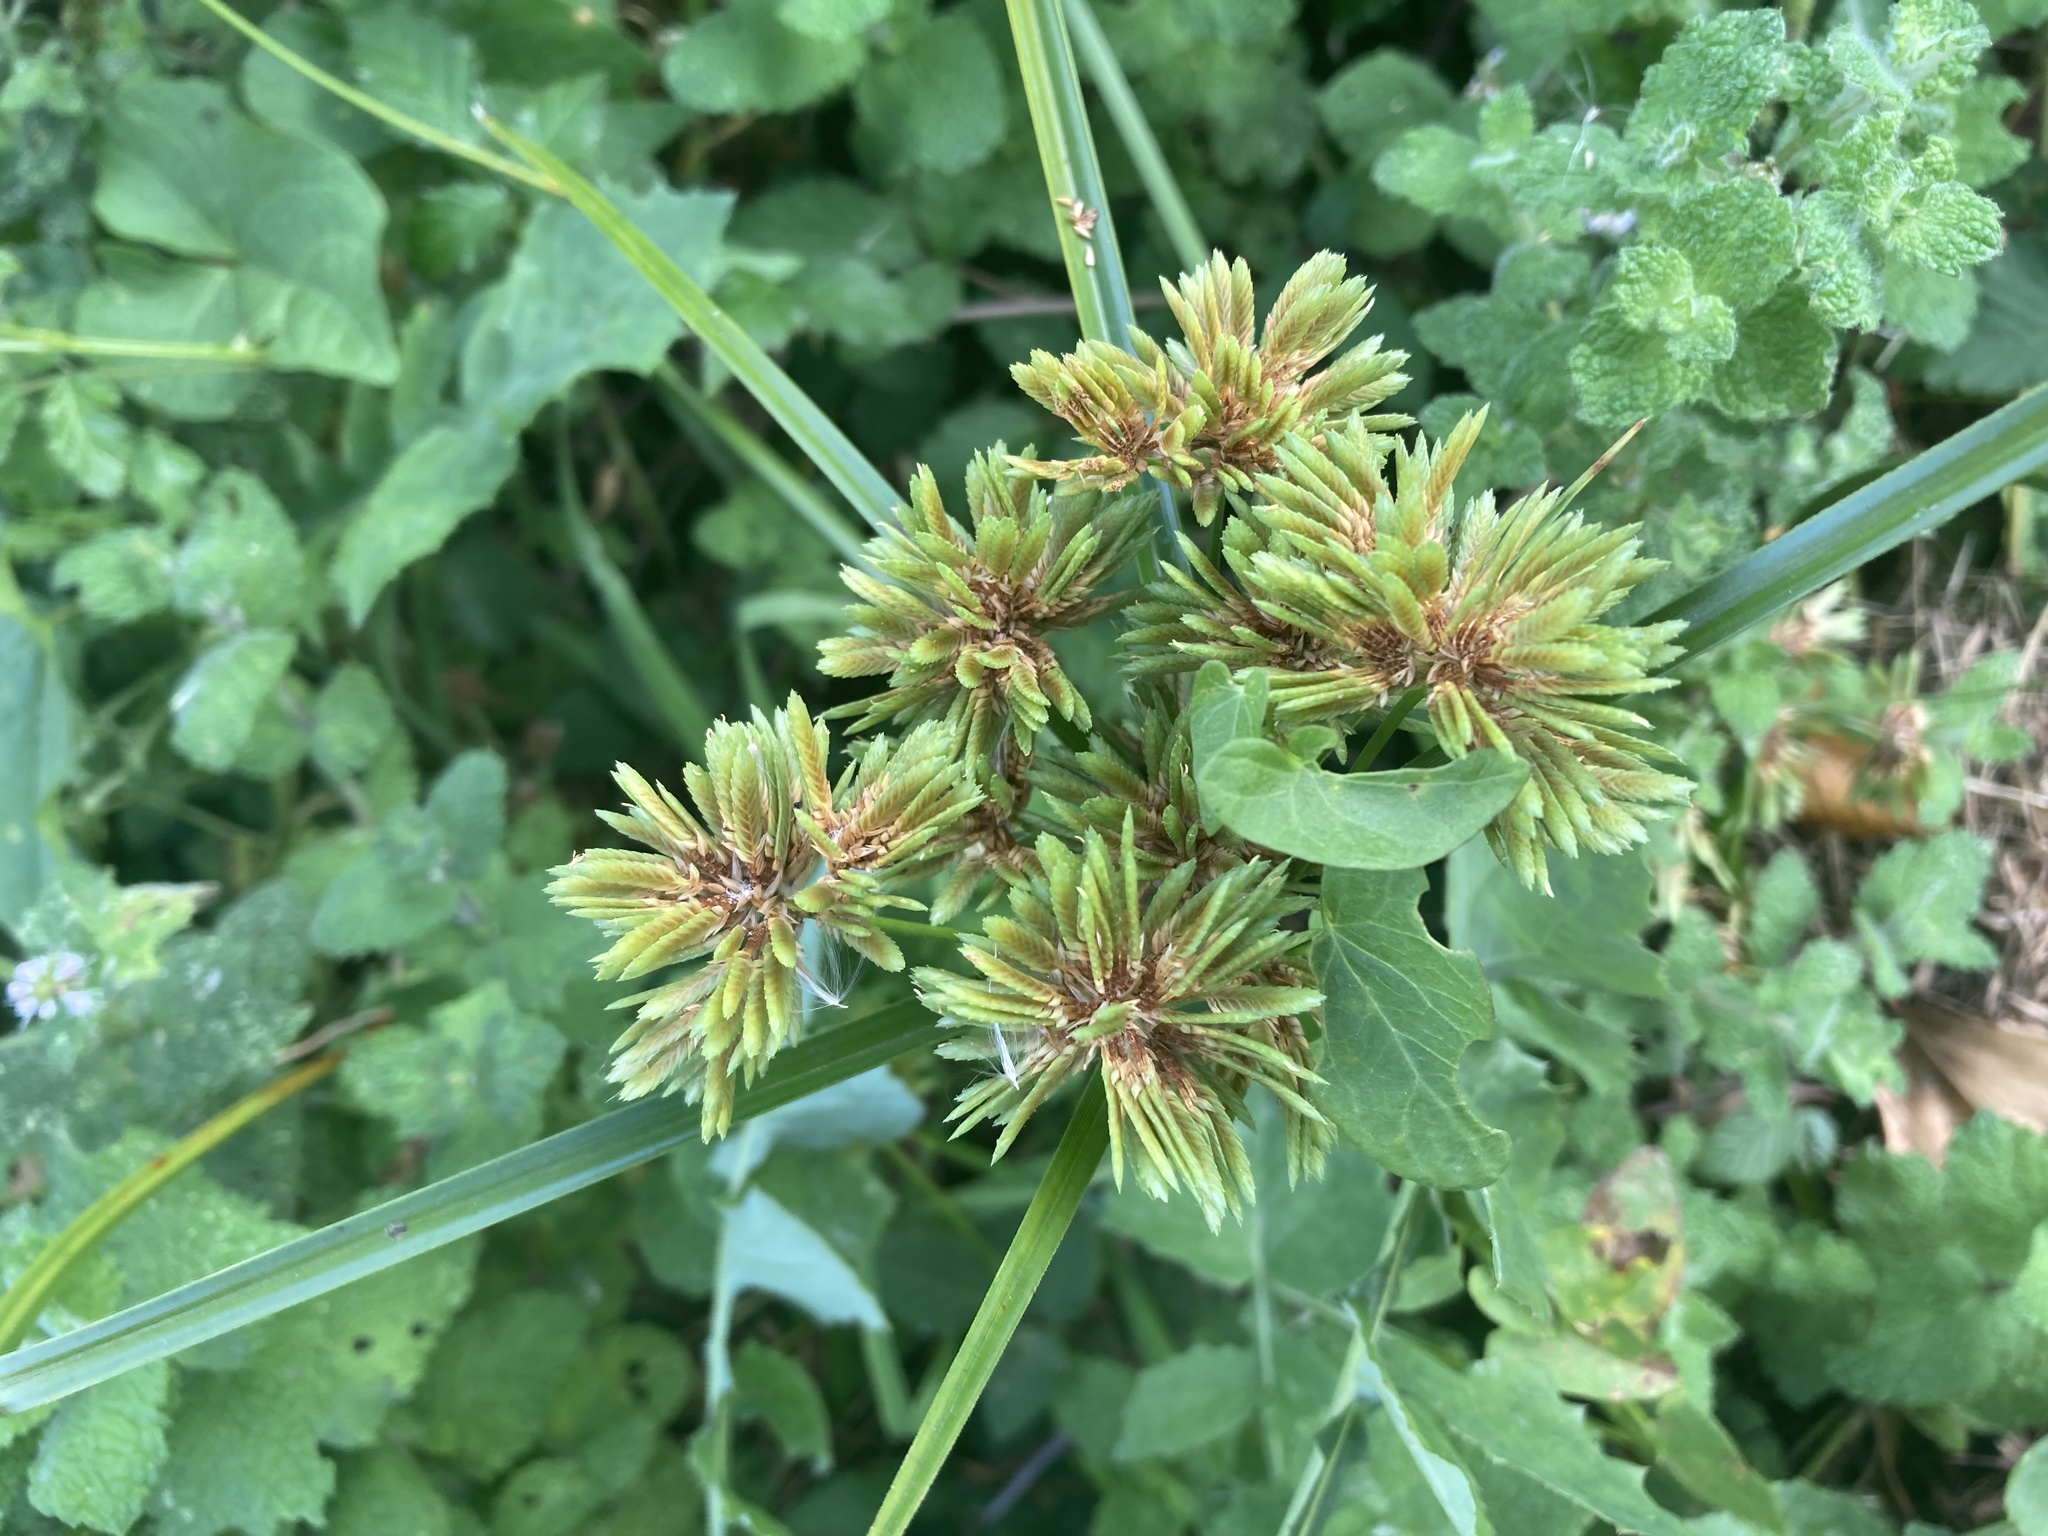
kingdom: Plantae
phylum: Tracheophyta
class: Liliopsida
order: Poales
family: Cyperaceae
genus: Cyperus
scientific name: Cyperus eragrostis
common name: Tall flatsedge
